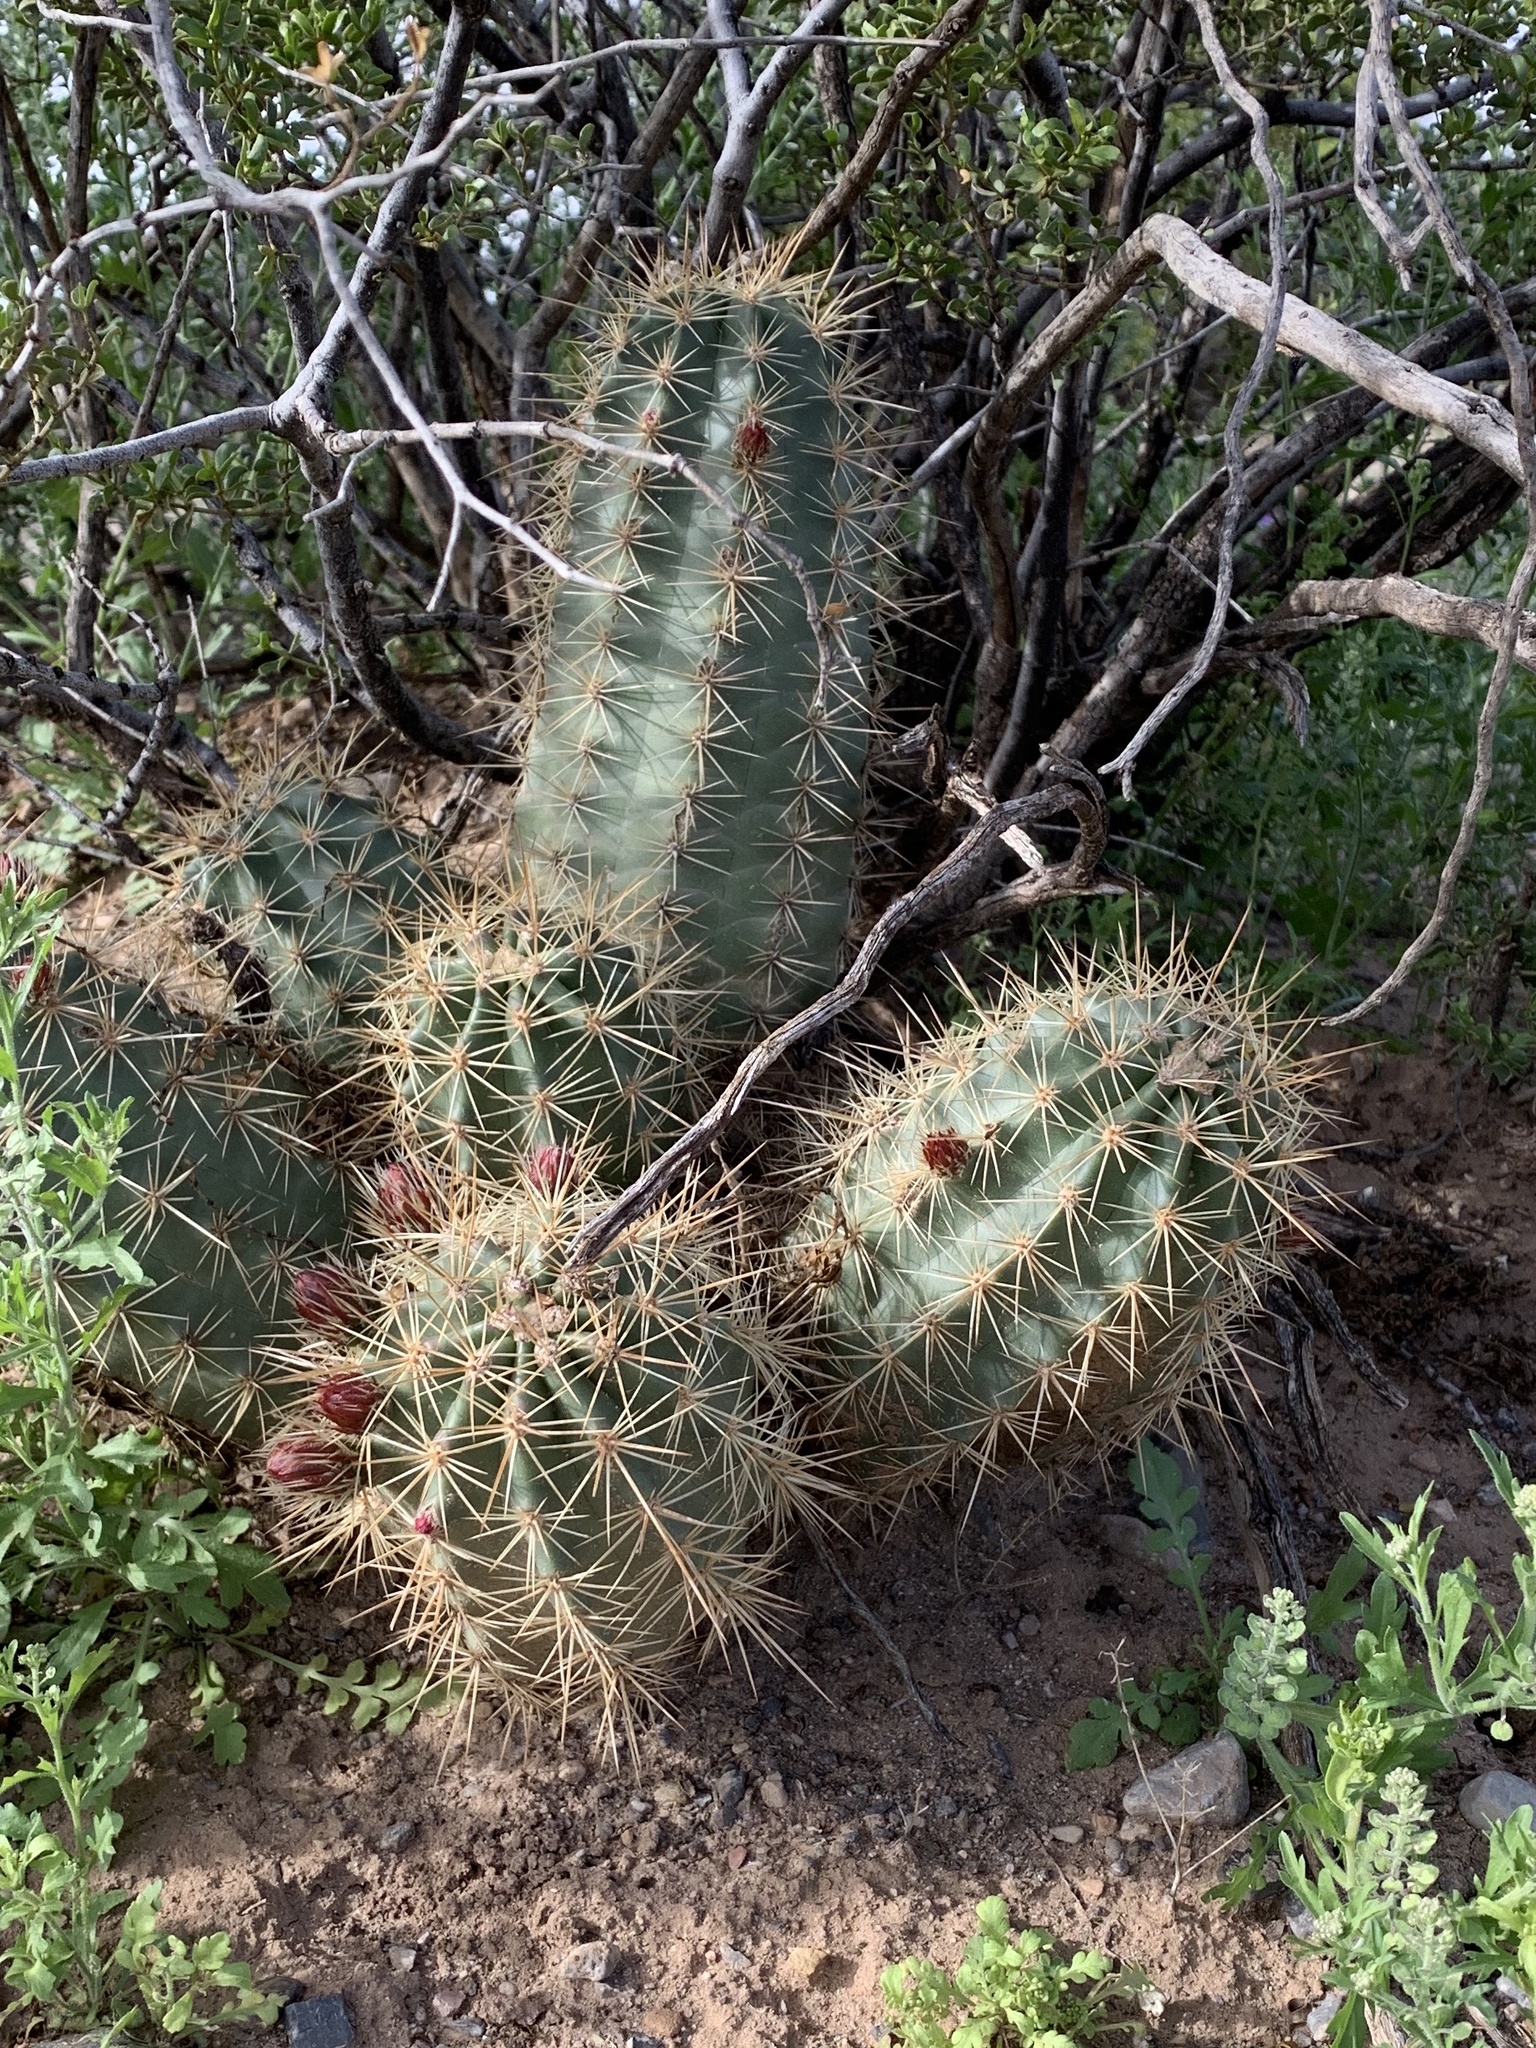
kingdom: Plantae
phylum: Tracheophyta
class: Magnoliopsida
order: Caryophyllales
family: Cactaceae
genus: Echinocereus
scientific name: Echinocereus coccineus
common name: Scarlet hedgehog cactus
